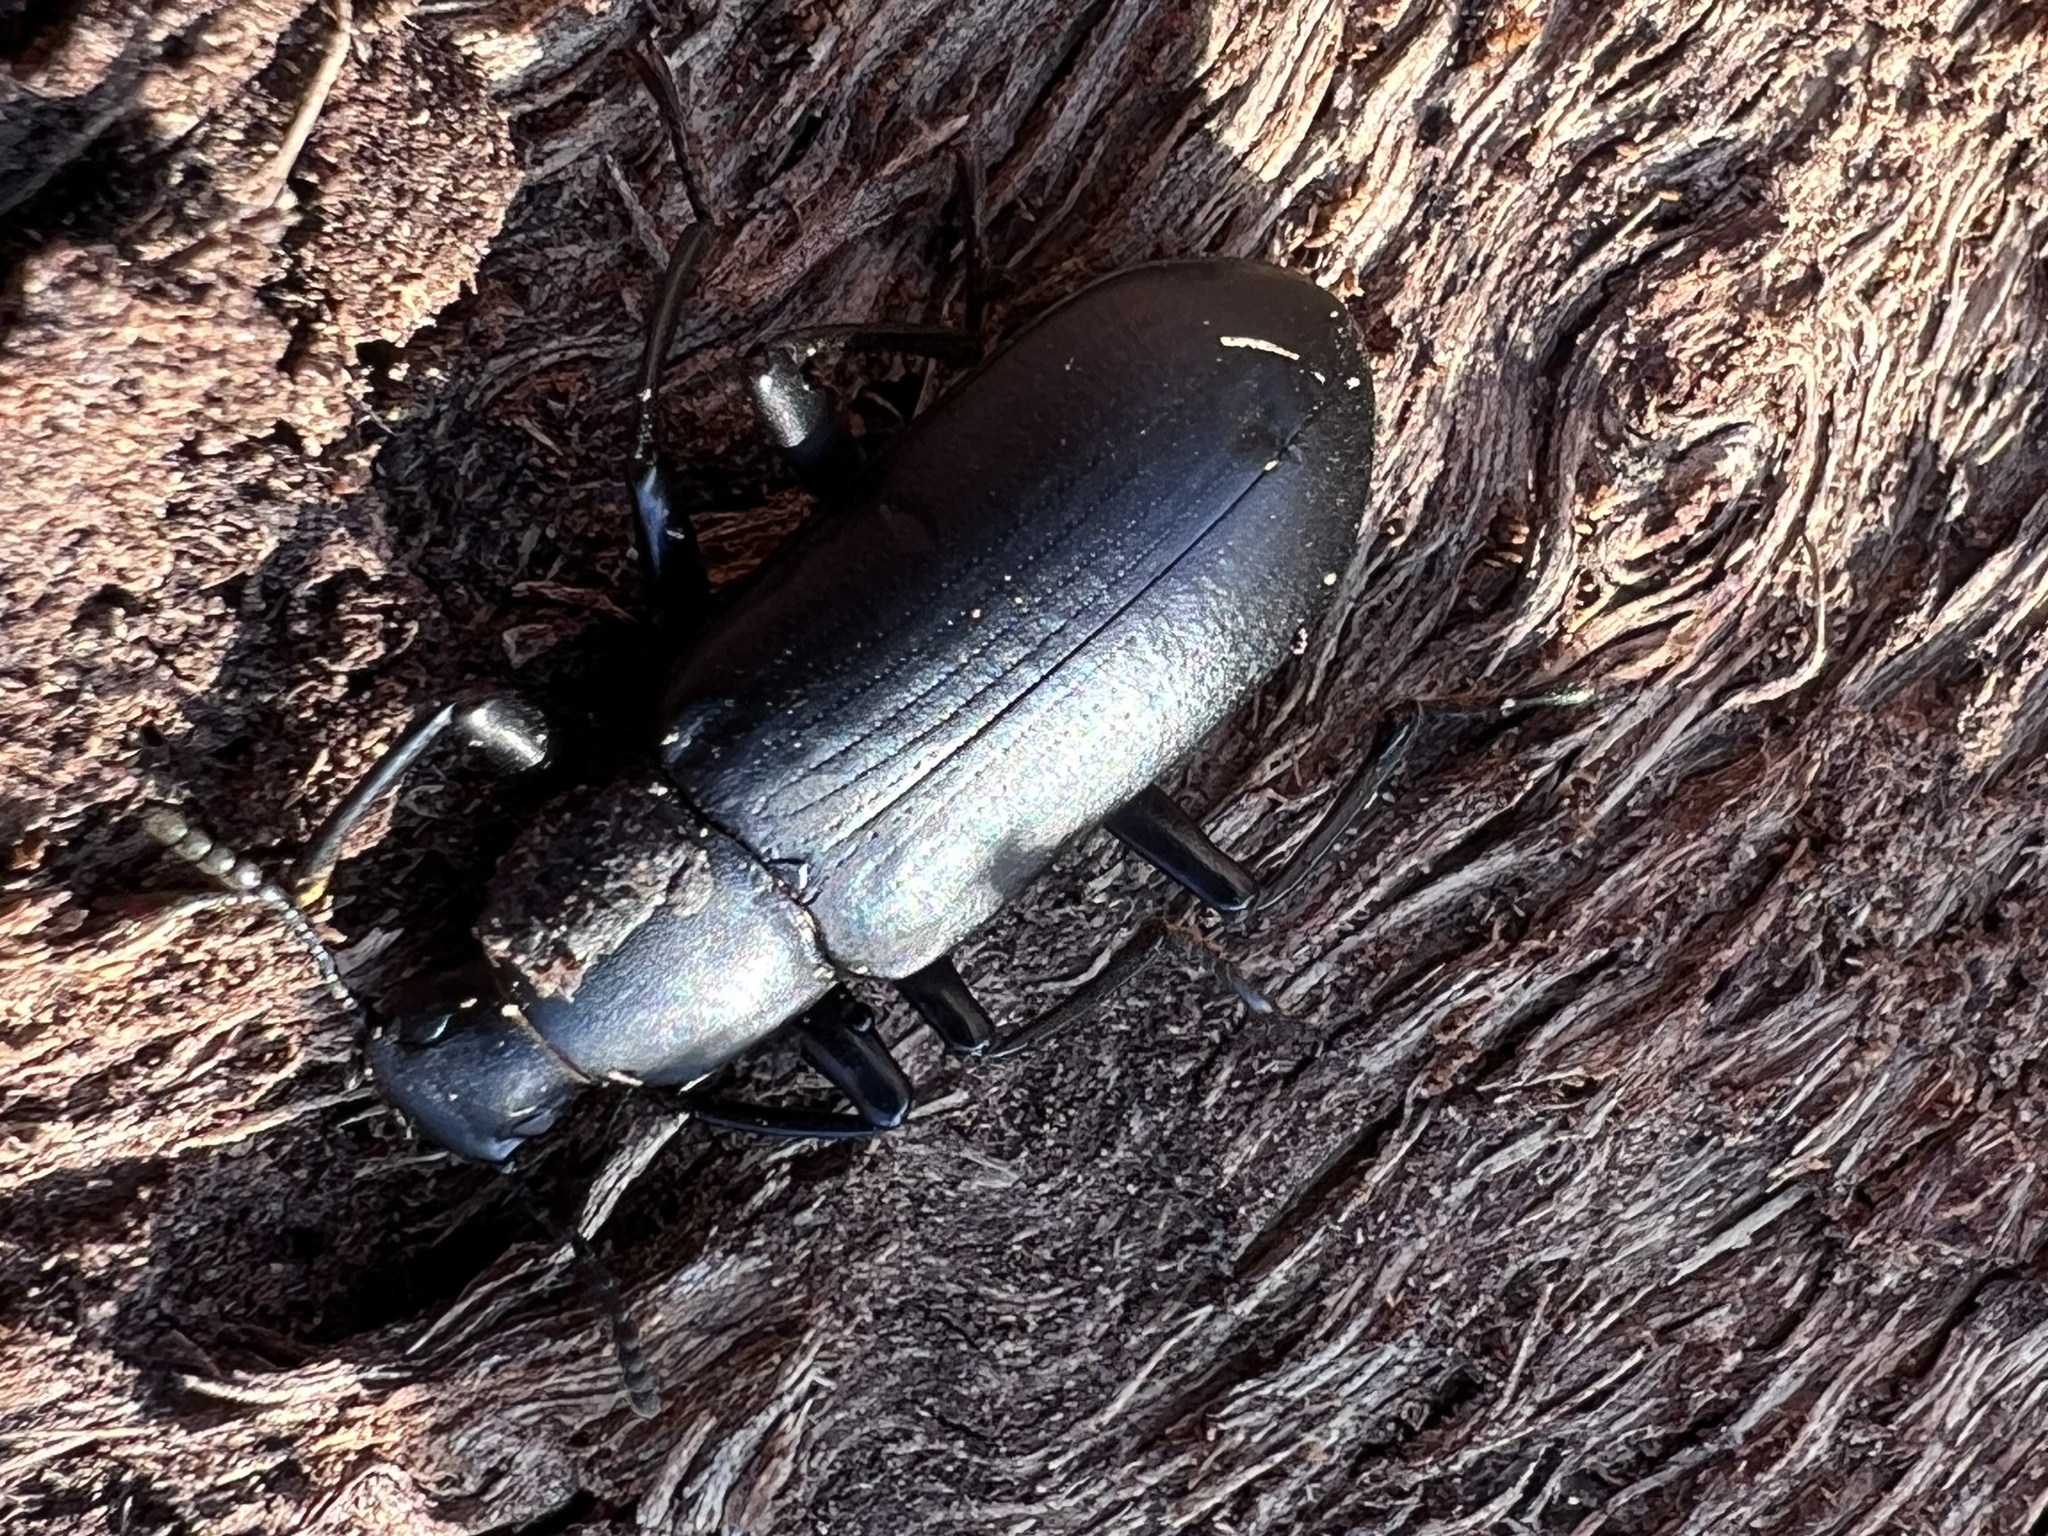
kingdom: Animalia
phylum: Arthropoda
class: Insecta
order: Coleoptera
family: Tenebrionidae
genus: Alobates
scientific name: Alobates pensylvanicus
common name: False mealworm beetle
